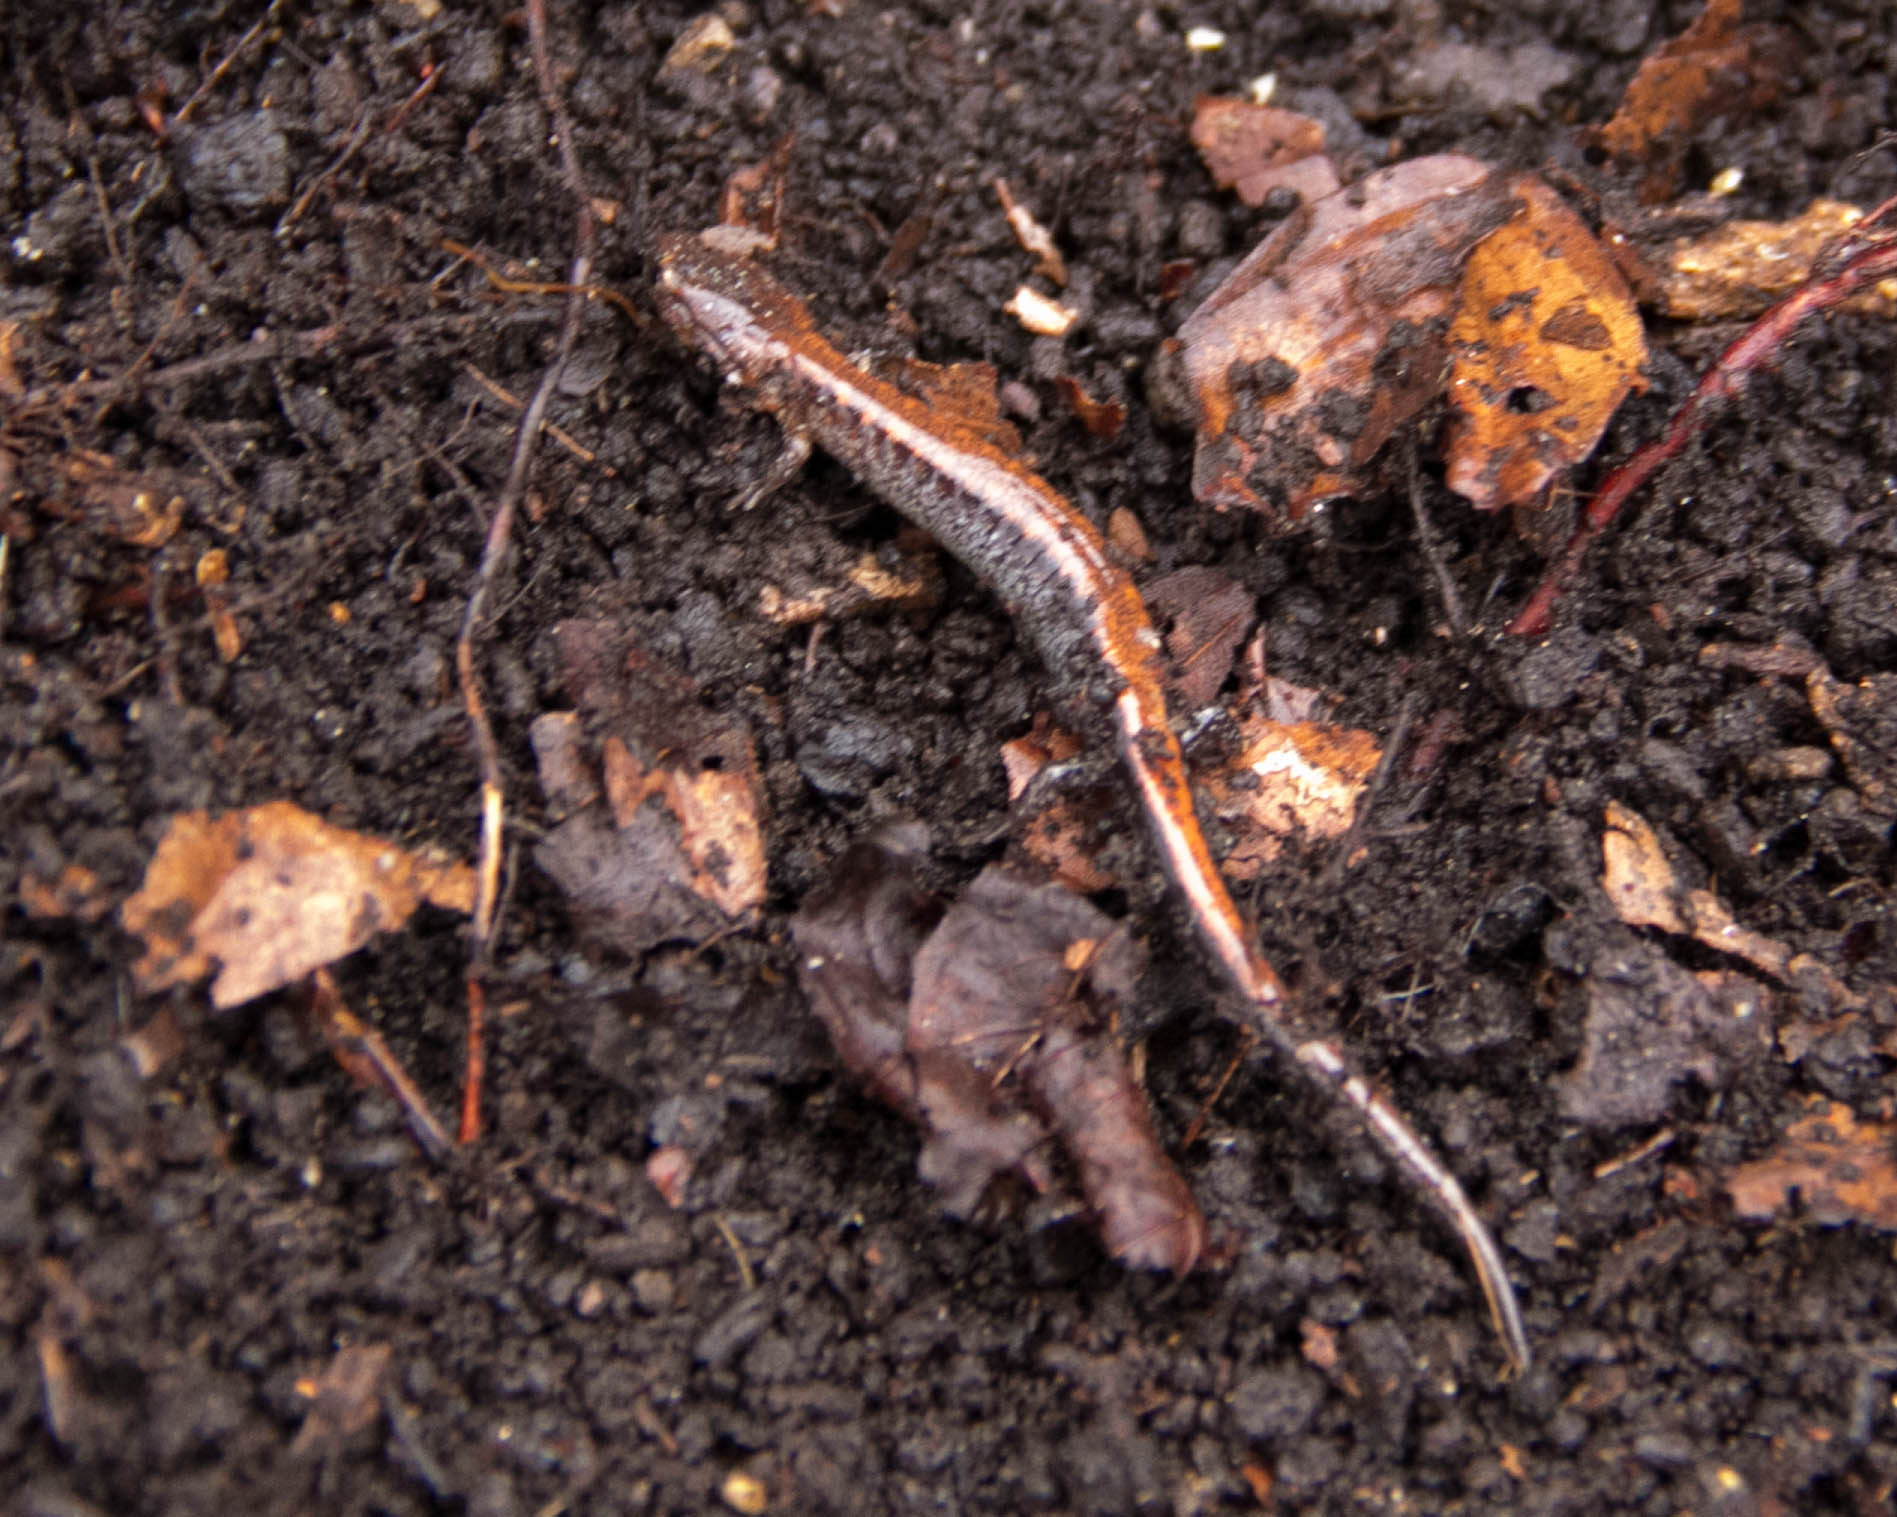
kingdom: Animalia
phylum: Chordata
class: Amphibia
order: Caudata
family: Plethodontidae
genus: Plethodon
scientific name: Plethodon cinereus
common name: Redback salamander
